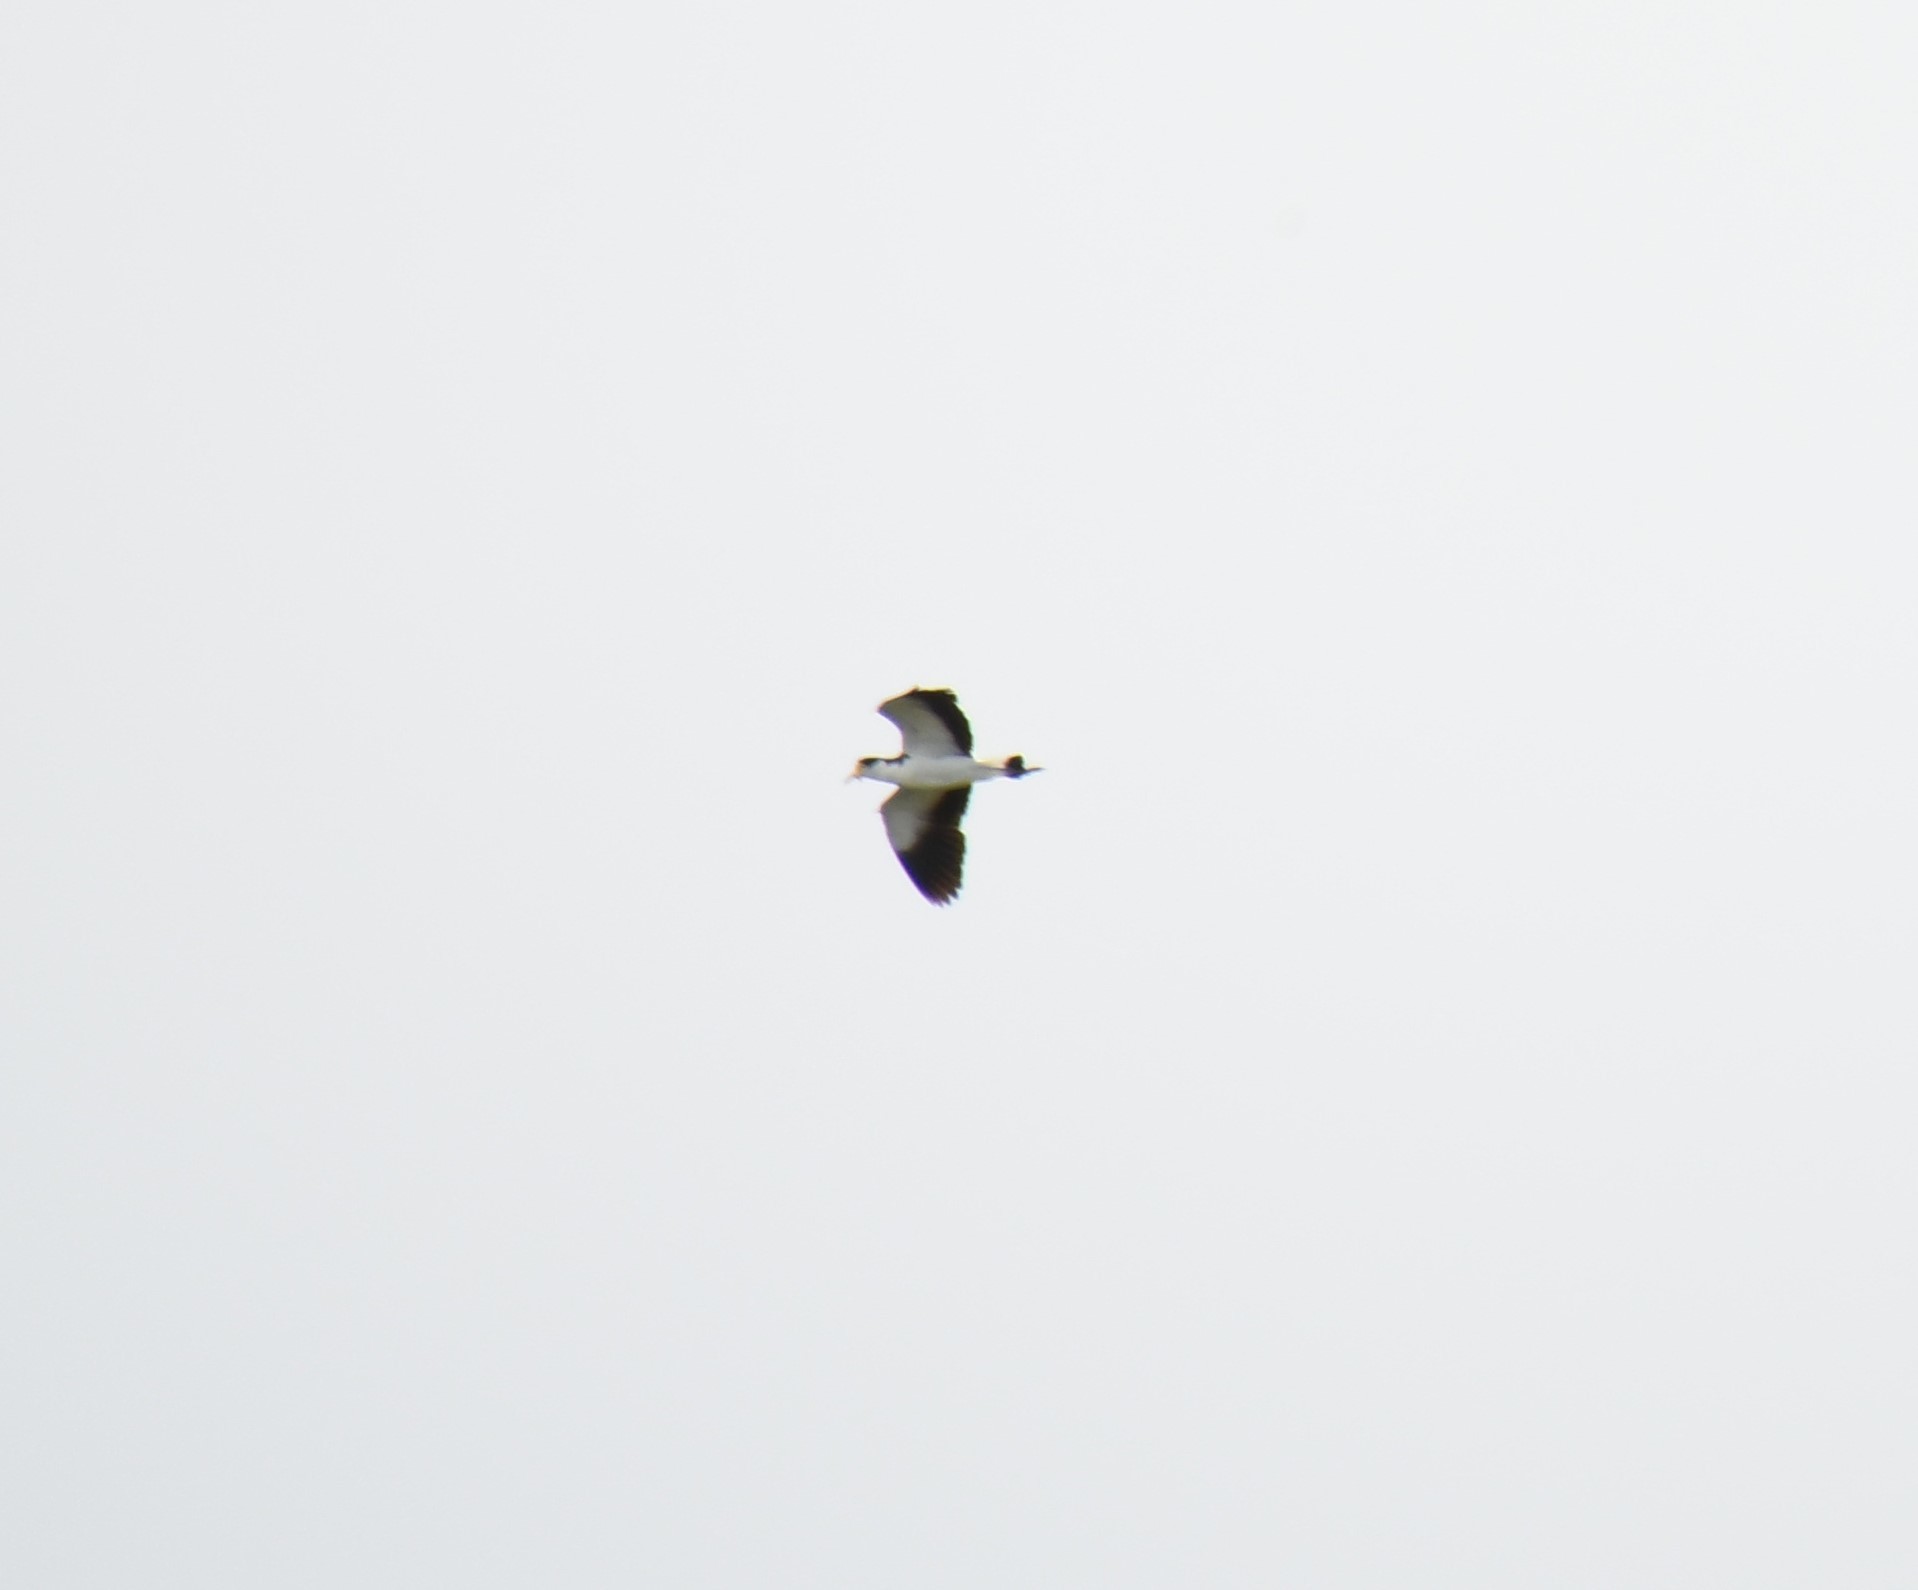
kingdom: Animalia
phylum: Chordata
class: Aves
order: Charadriiformes
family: Charadriidae
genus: Vanellus
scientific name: Vanellus miles
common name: Masked lapwing
